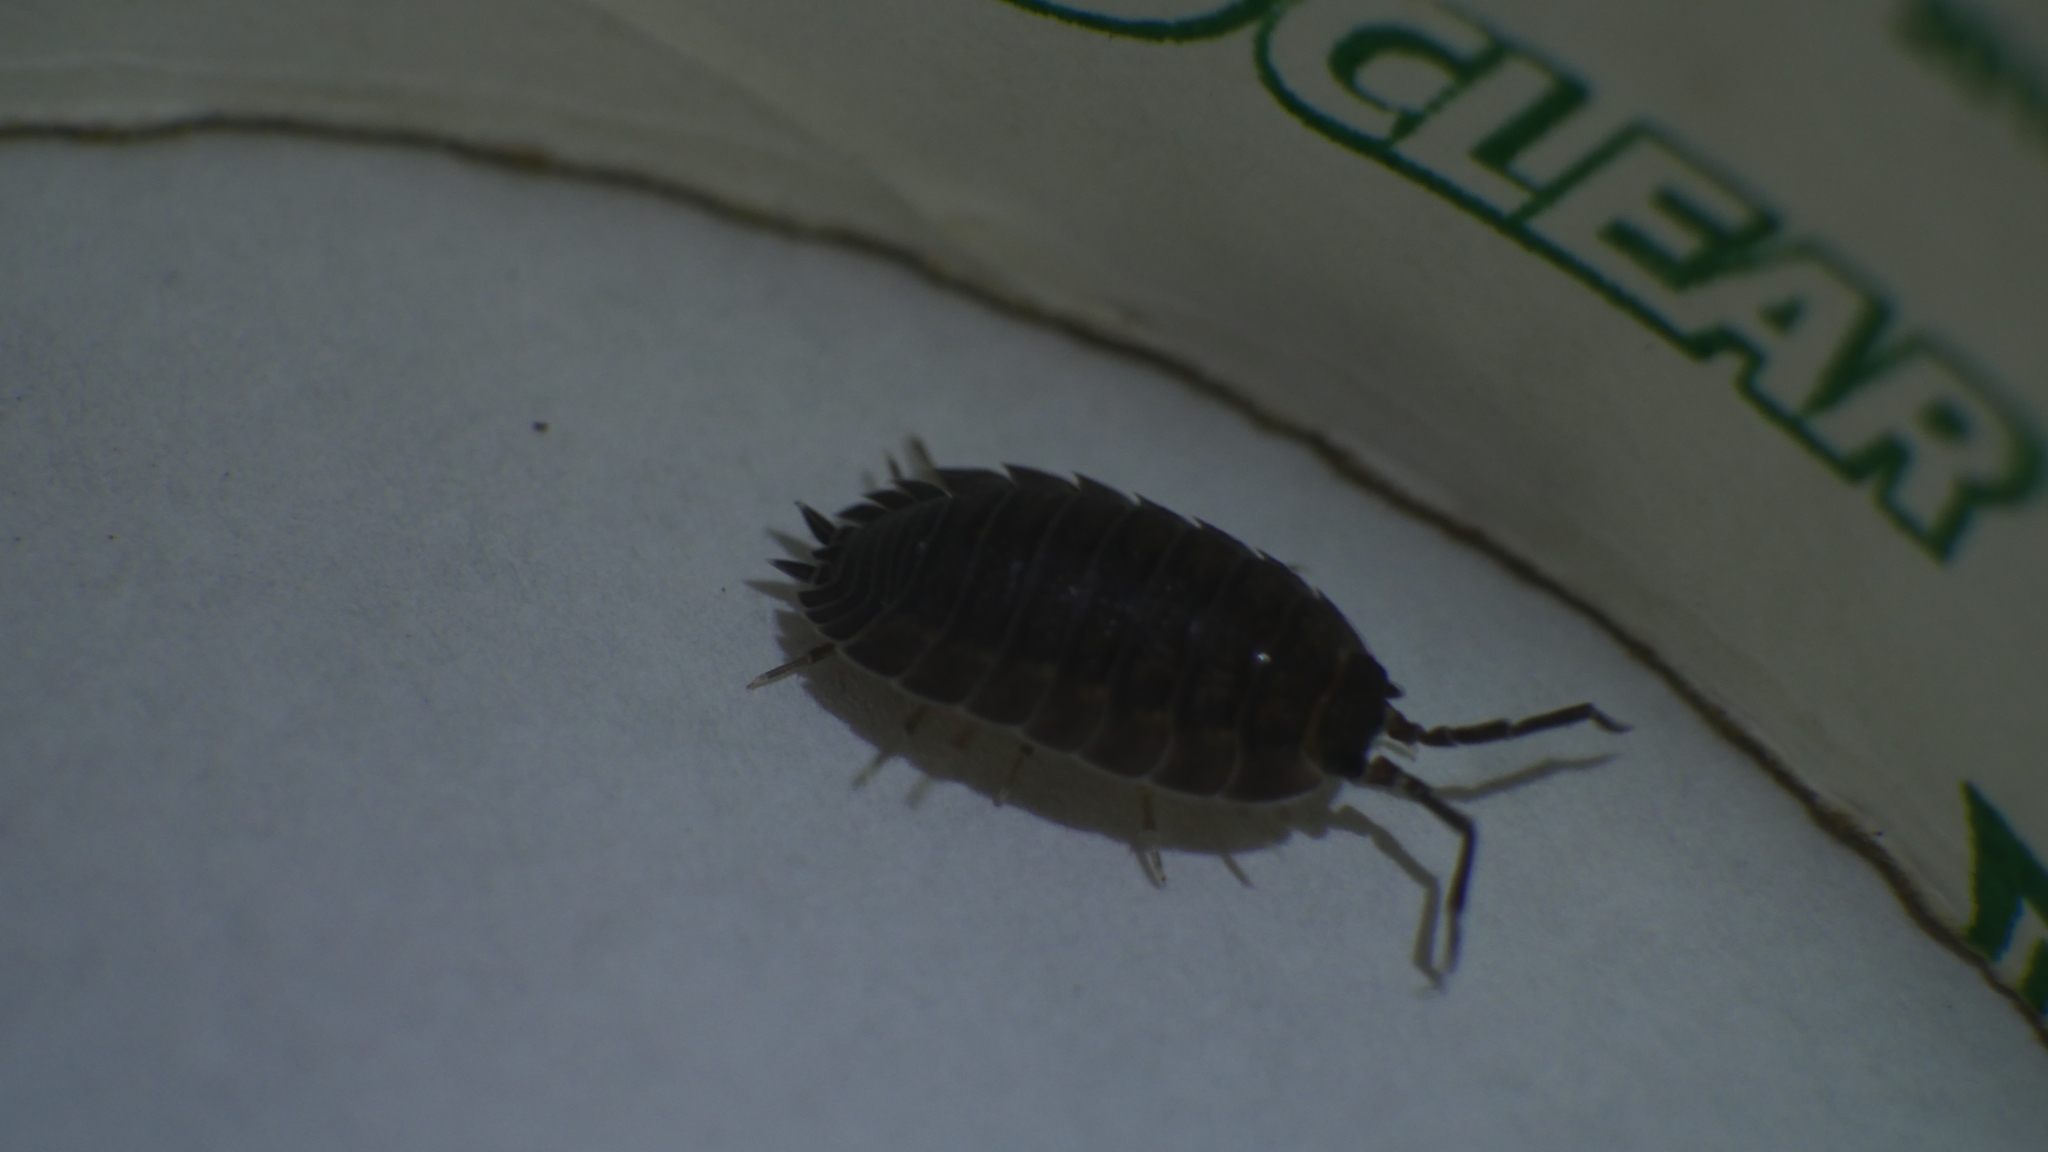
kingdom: Animalia
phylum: Arthropoda
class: Malacostraca
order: Isopoda
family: Porcellionidae
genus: Porcellio
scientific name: Porcellio scaber
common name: Common rough woodlouse
